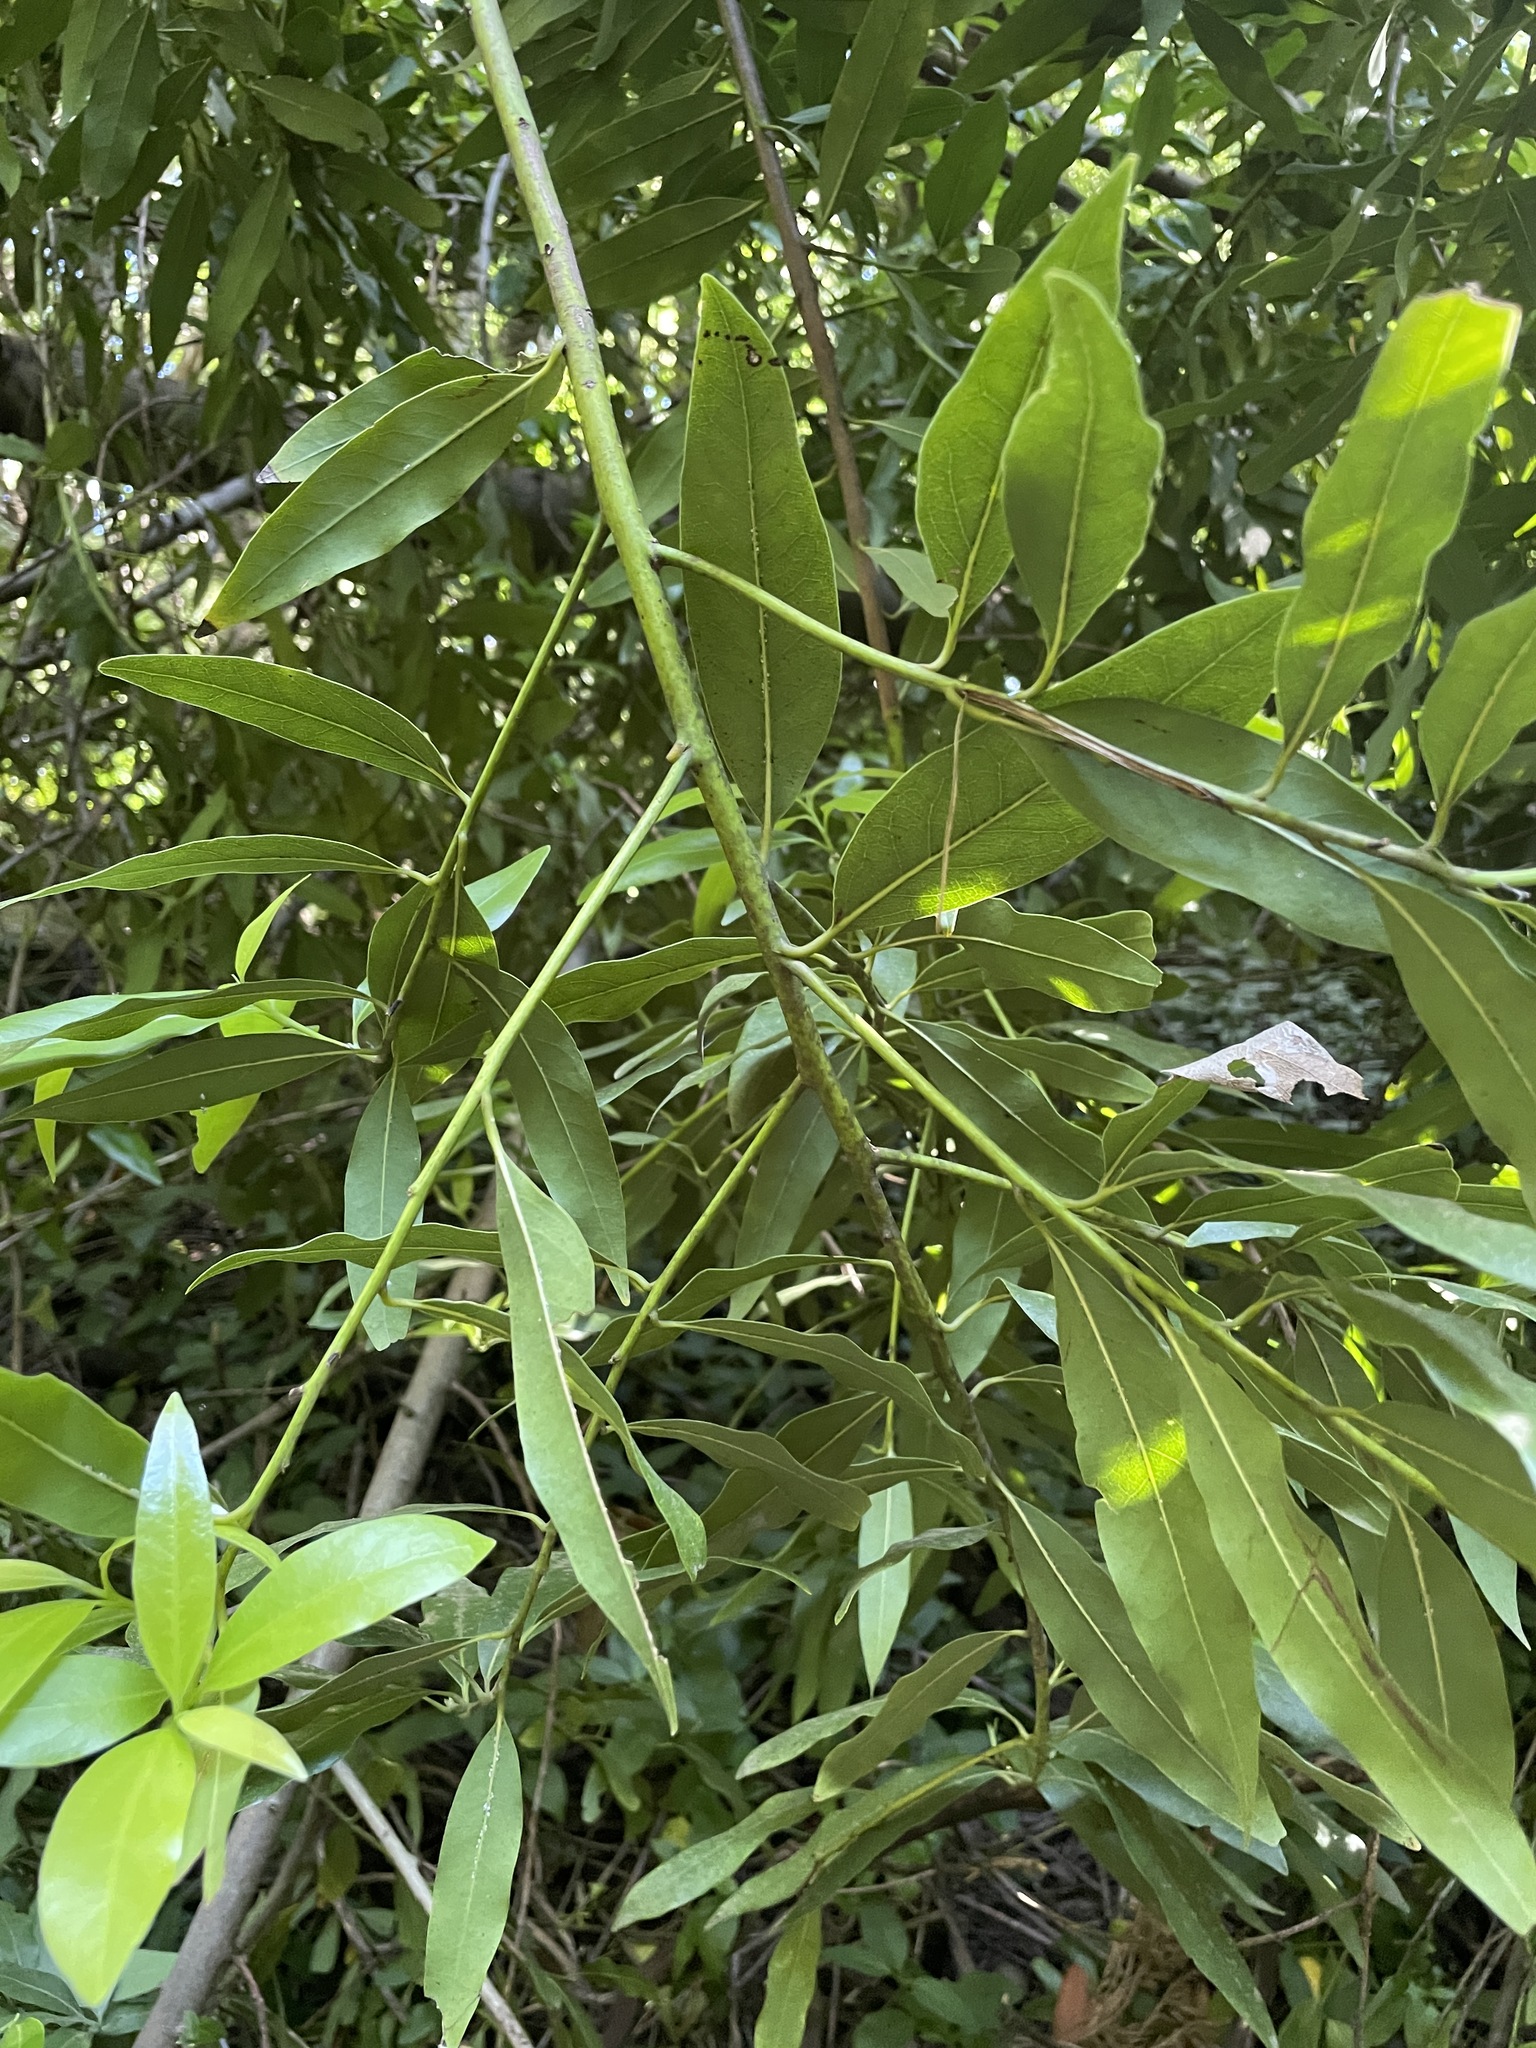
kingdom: Plantae
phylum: Tracheophyta
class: Magnoliopsida
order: Laurales
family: Lauraceae
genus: Umbellularia
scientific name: Umbellularia californica
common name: California bay
